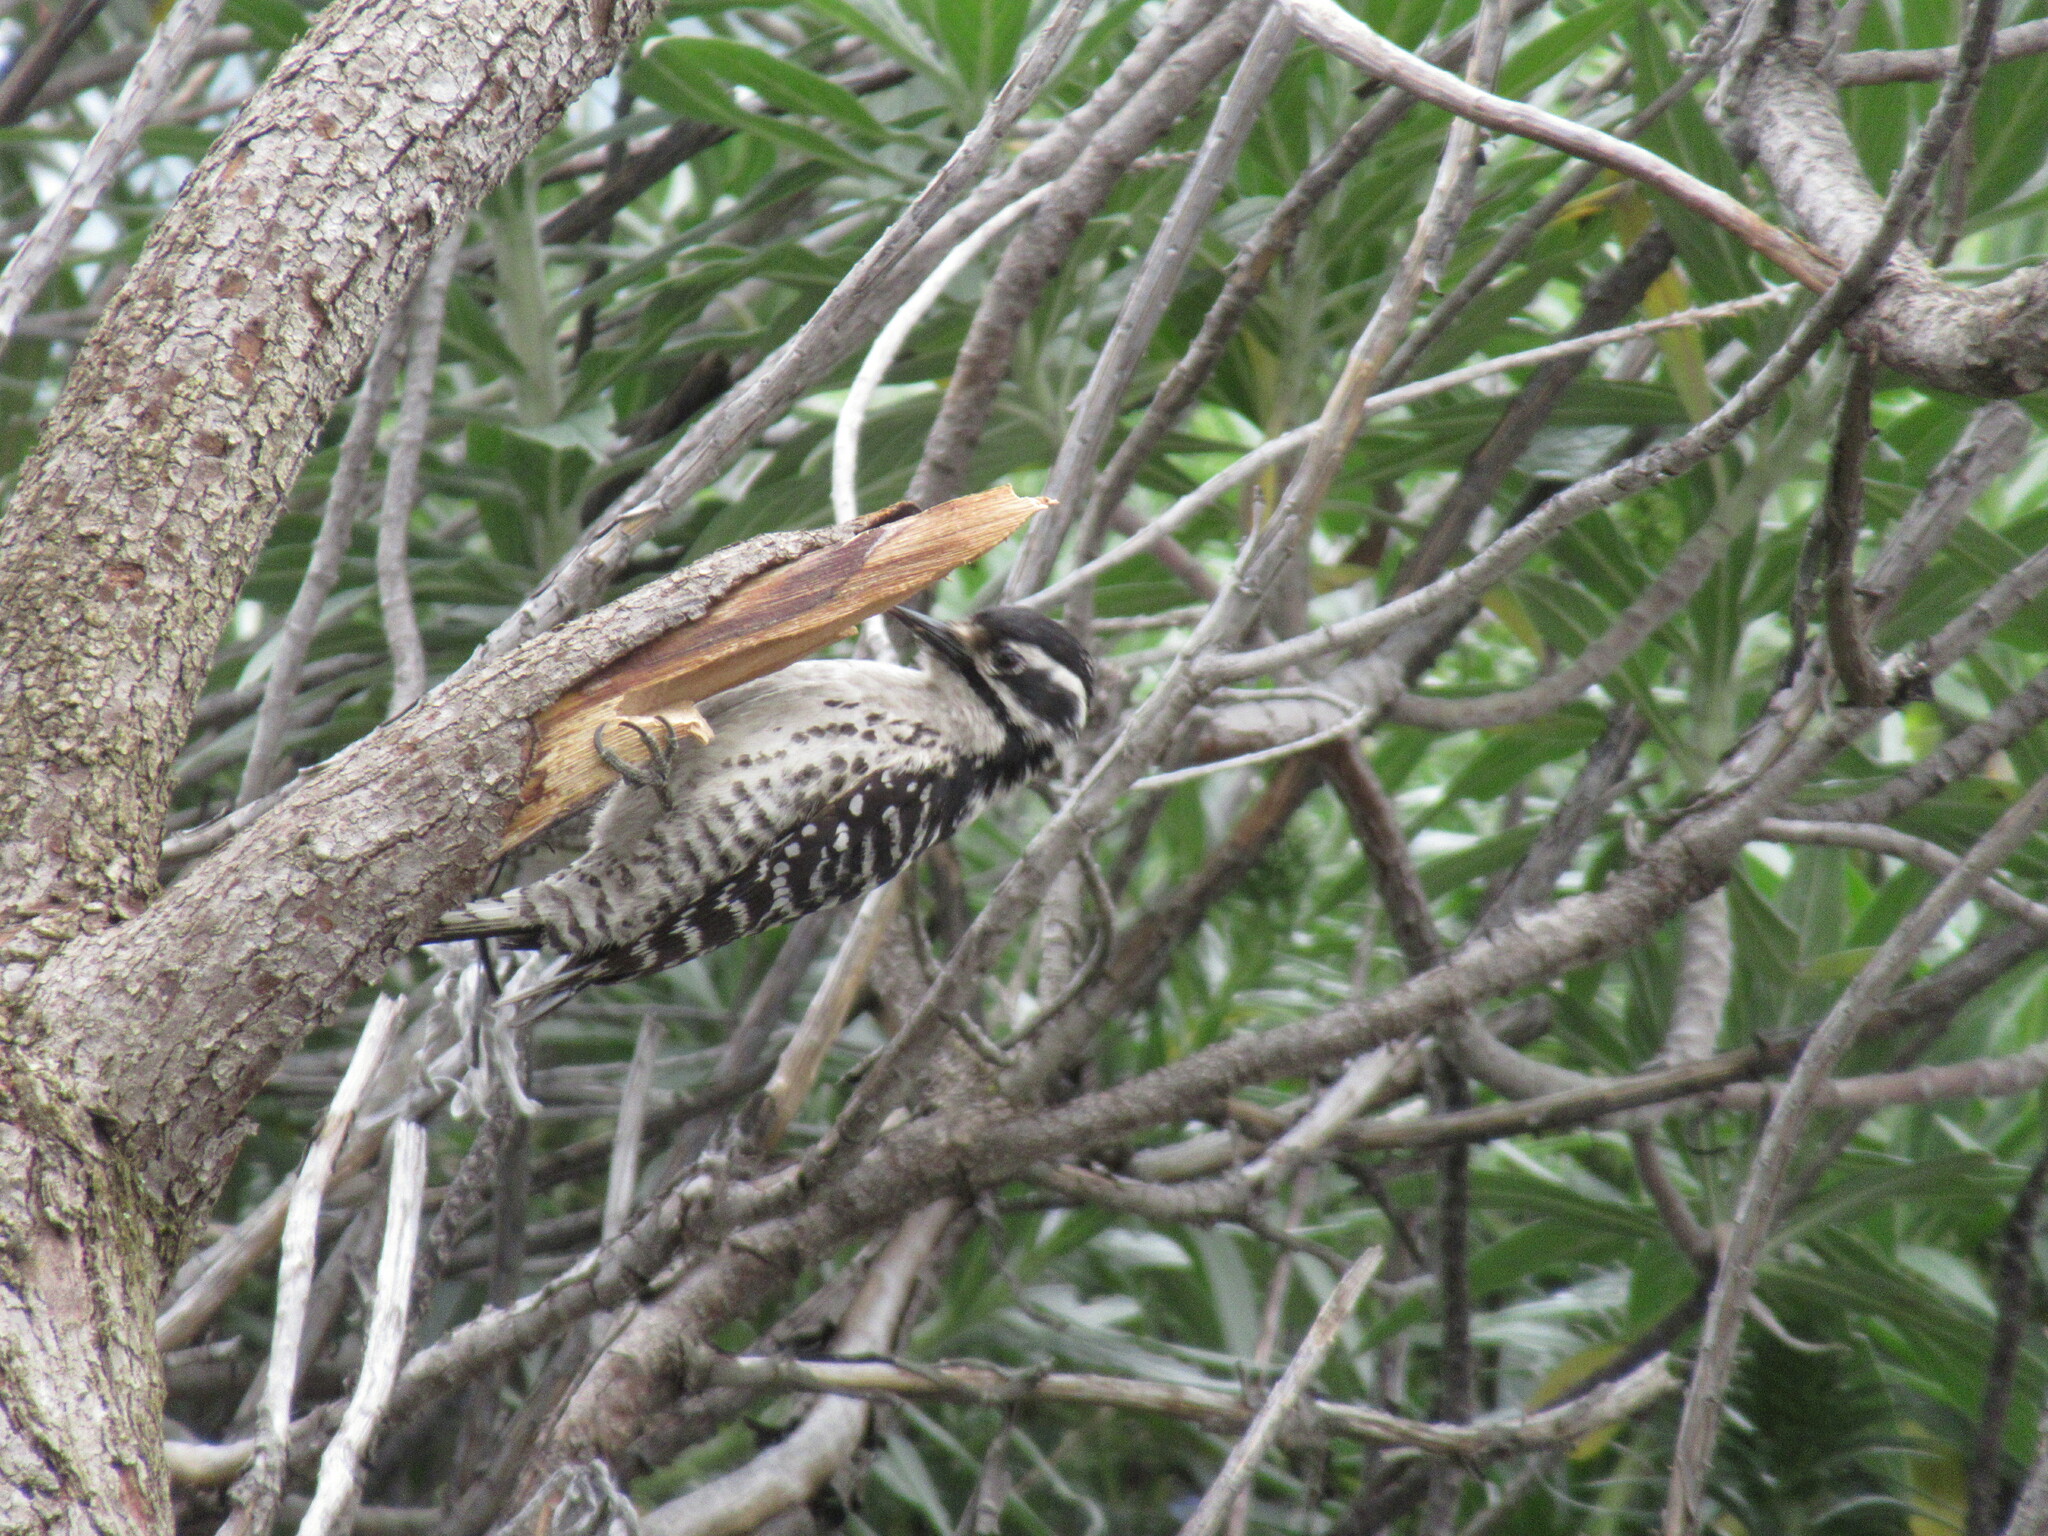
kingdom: Animalia
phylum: Chordata
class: Aves
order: Piciformes
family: Picidae
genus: Dryobates
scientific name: Dryobates nuttallii
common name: Nuttall's woodpecker
